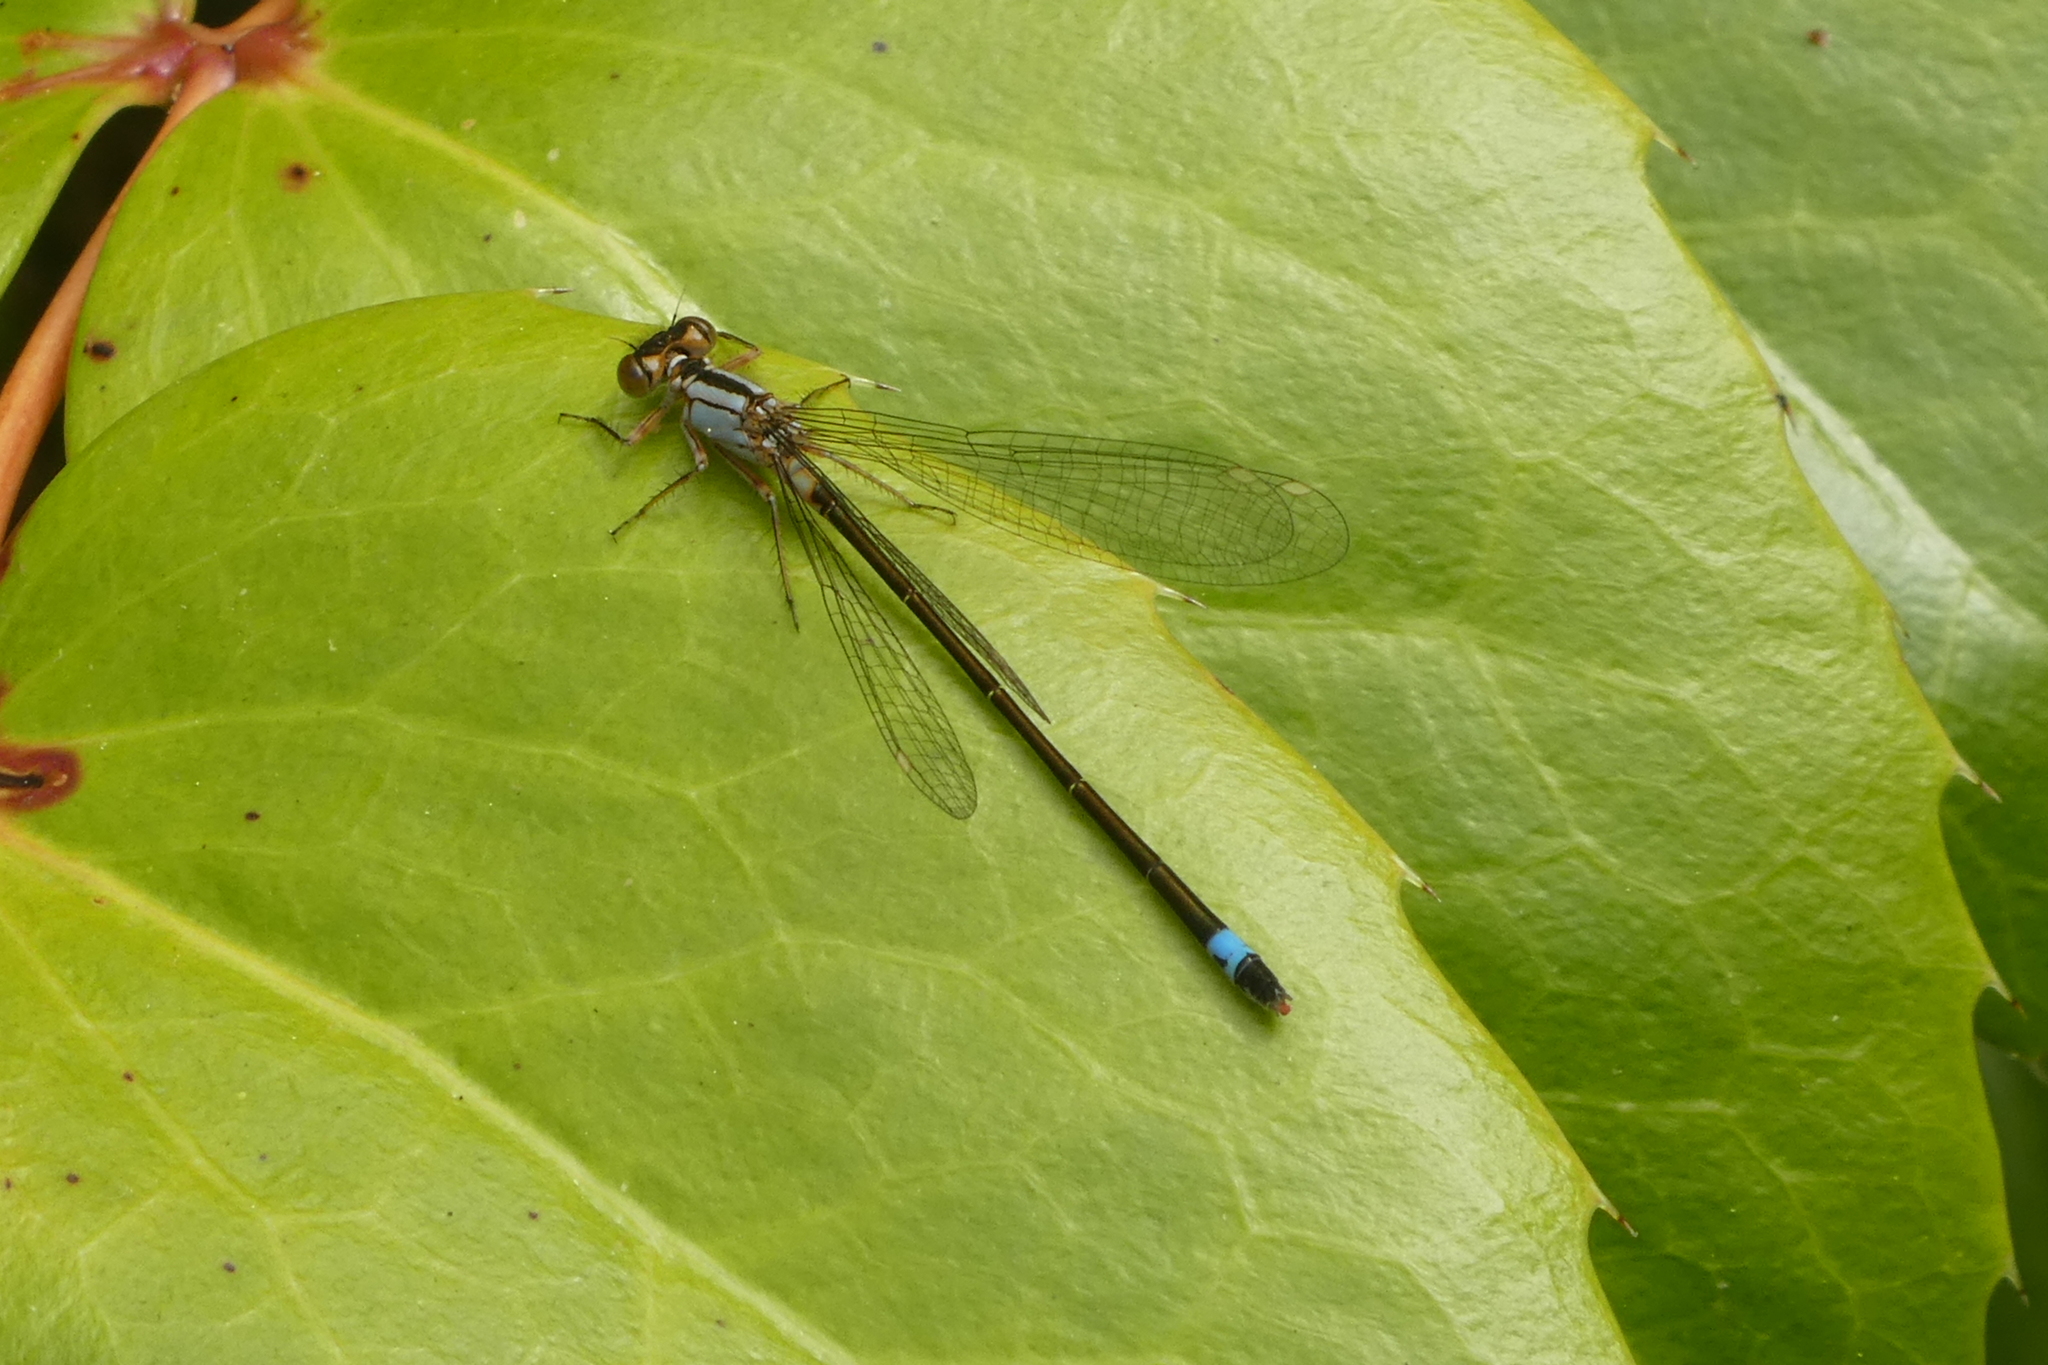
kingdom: Animalia
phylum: Arthropoda
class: Insecta
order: Odonata
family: Coenagrionidae
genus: Ischnura
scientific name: Ischnura cervula
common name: Pacific forktail
